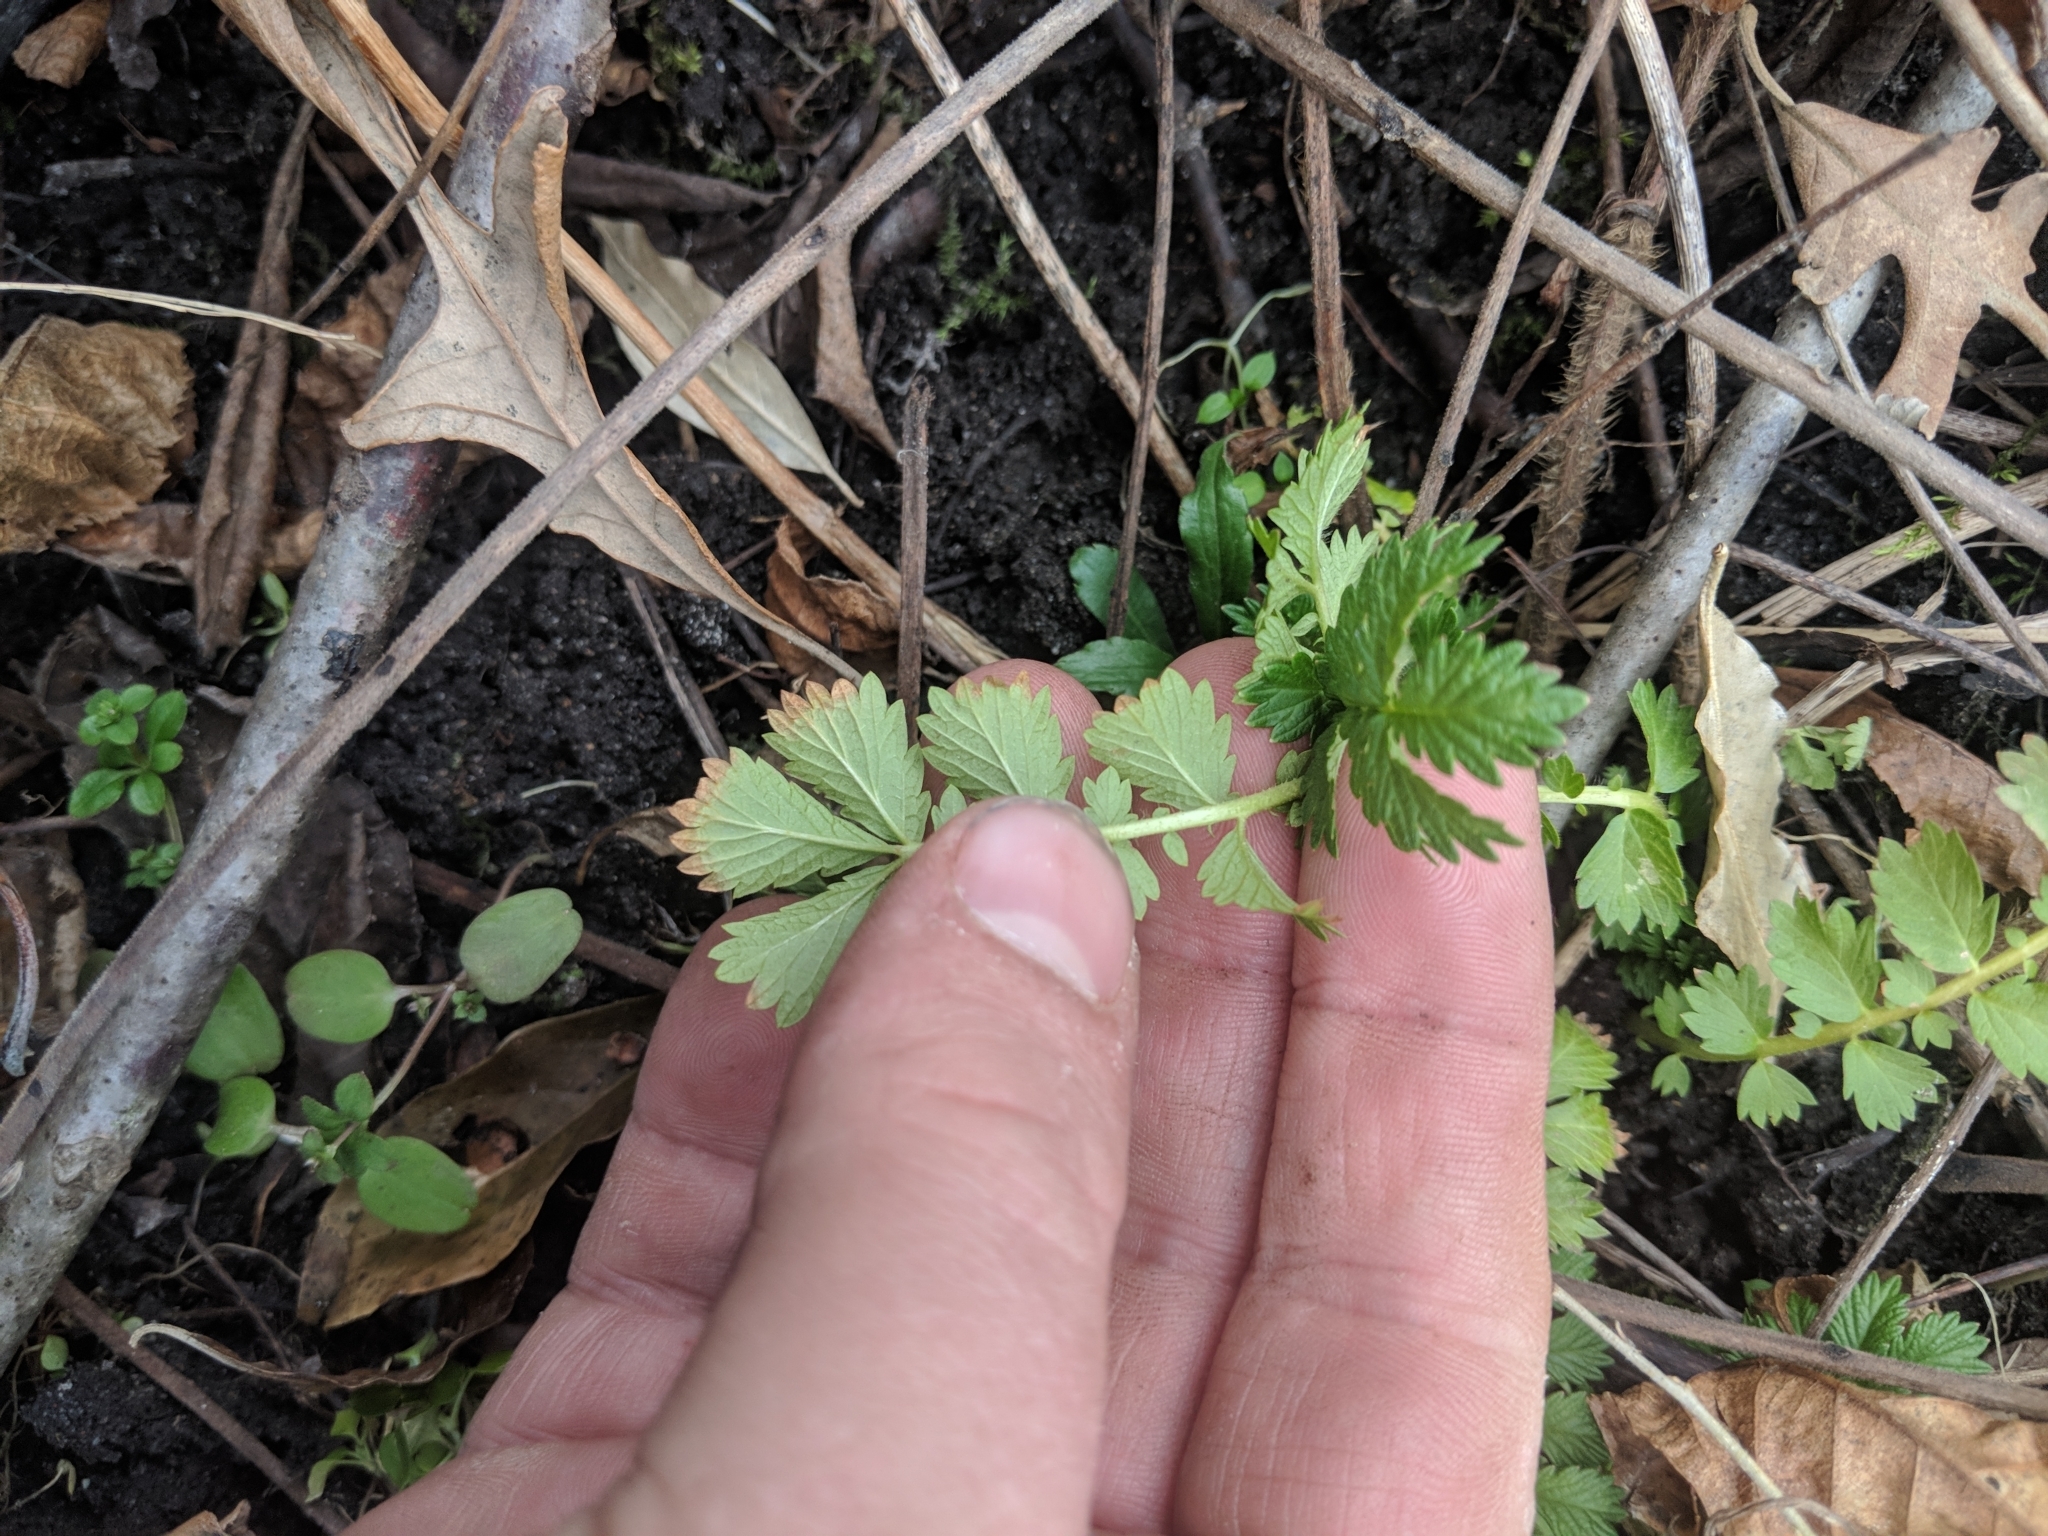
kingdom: Plantae
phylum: Tracheophyta
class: Magnoliopsida
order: Rosales
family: Rosaceae
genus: Agrimonia
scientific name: Agrimonia parviflora
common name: Harvest-lice
